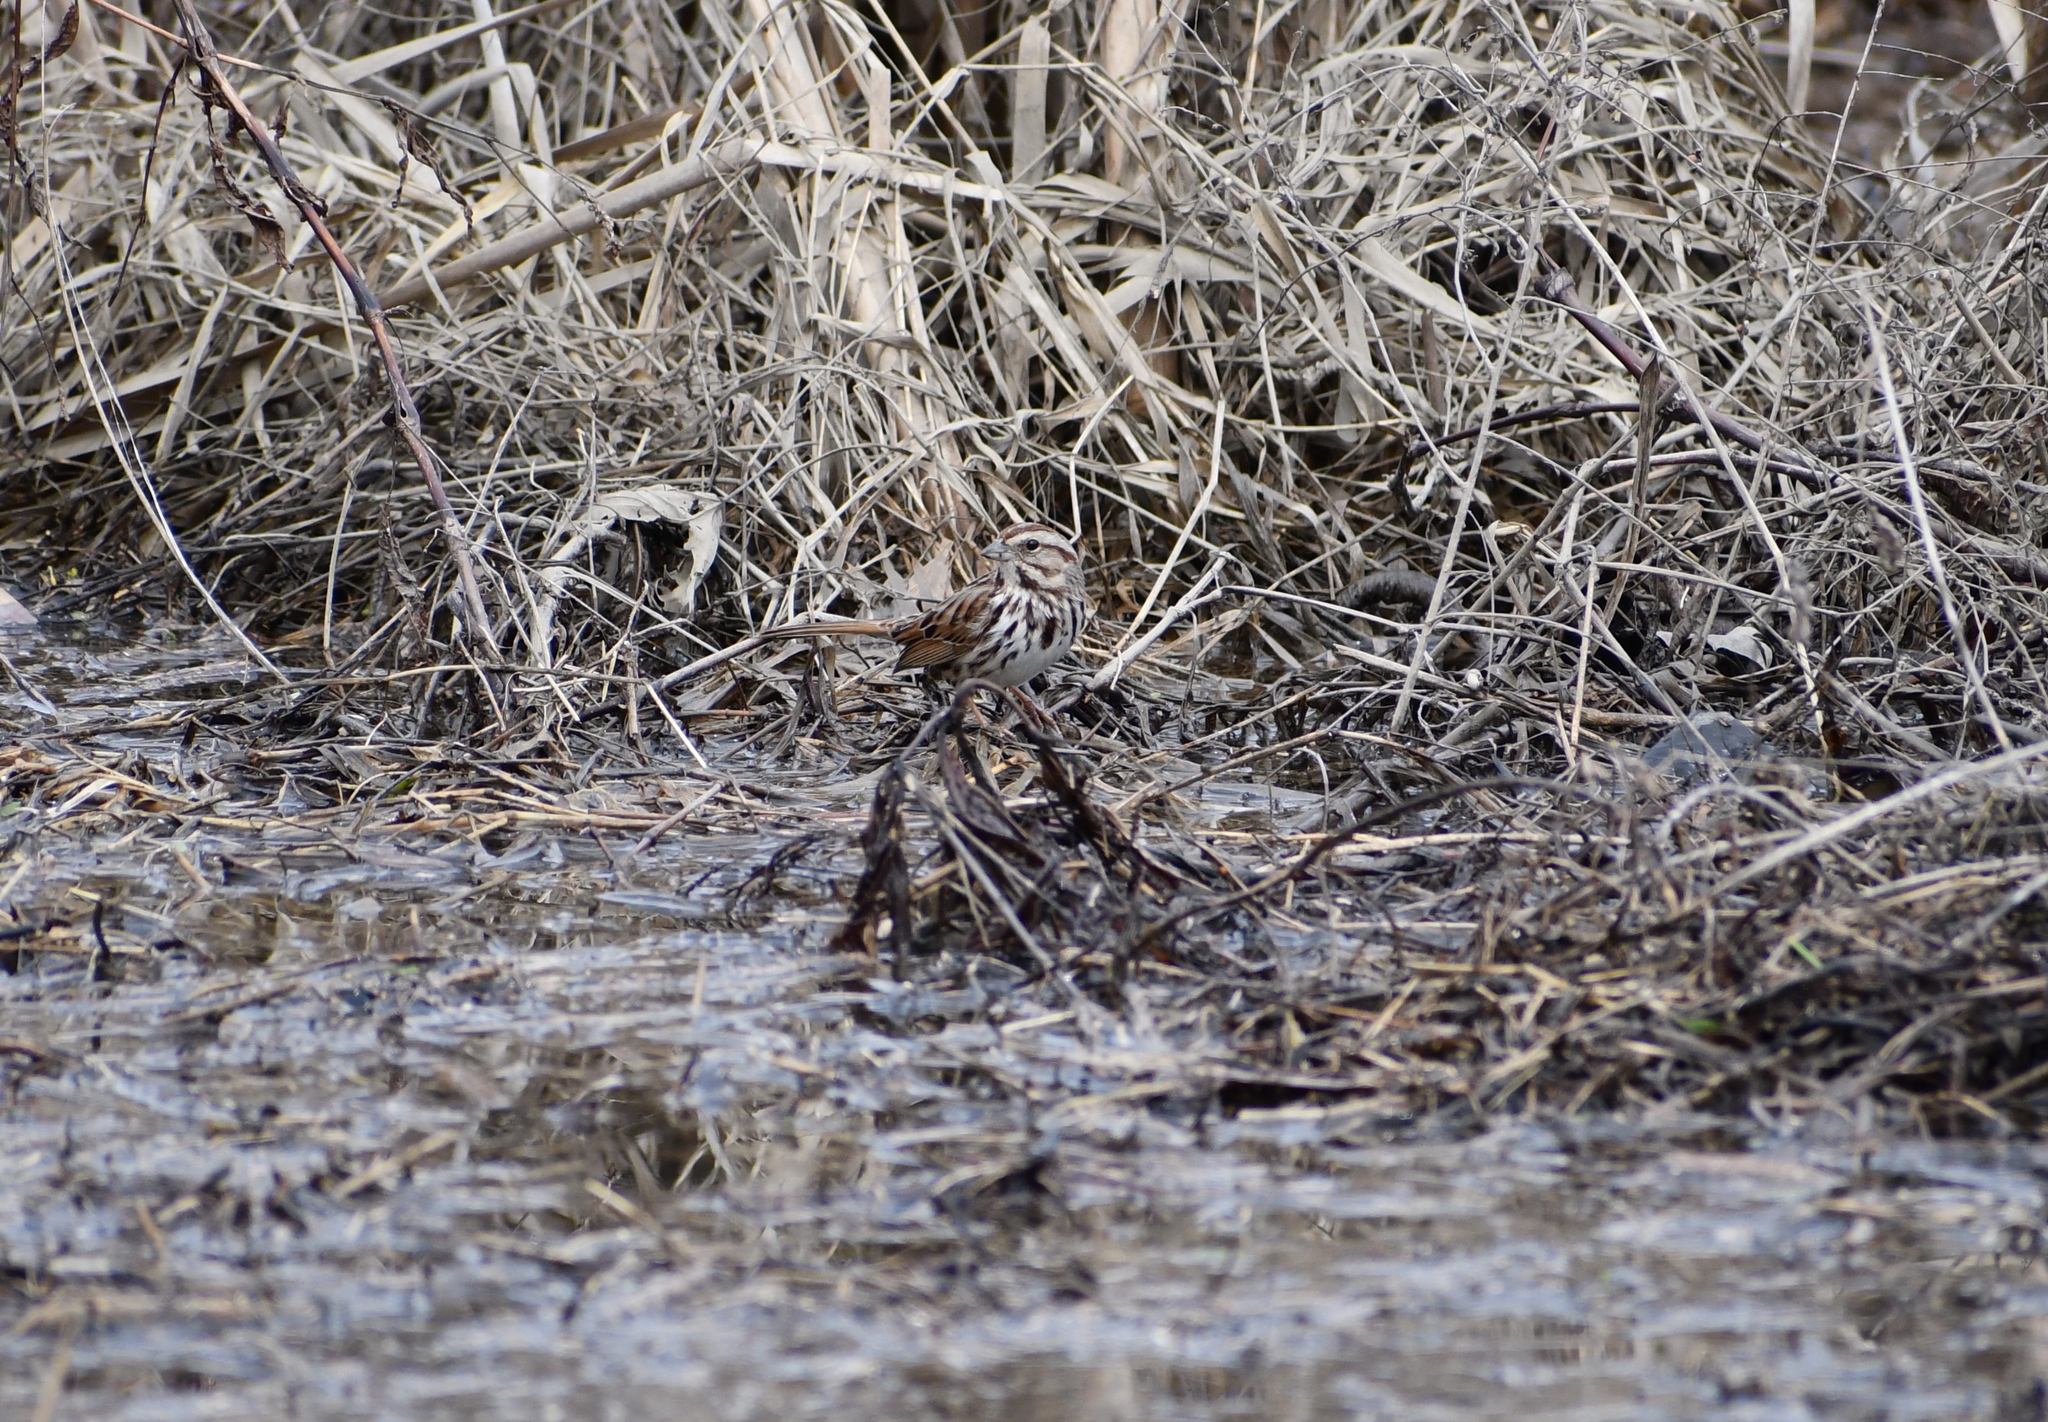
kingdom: Animalia
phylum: Chordata
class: Aves
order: Passeriformes
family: Passerellidae
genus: Melospiza
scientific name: Melospiza melodia
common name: Song sparrow
